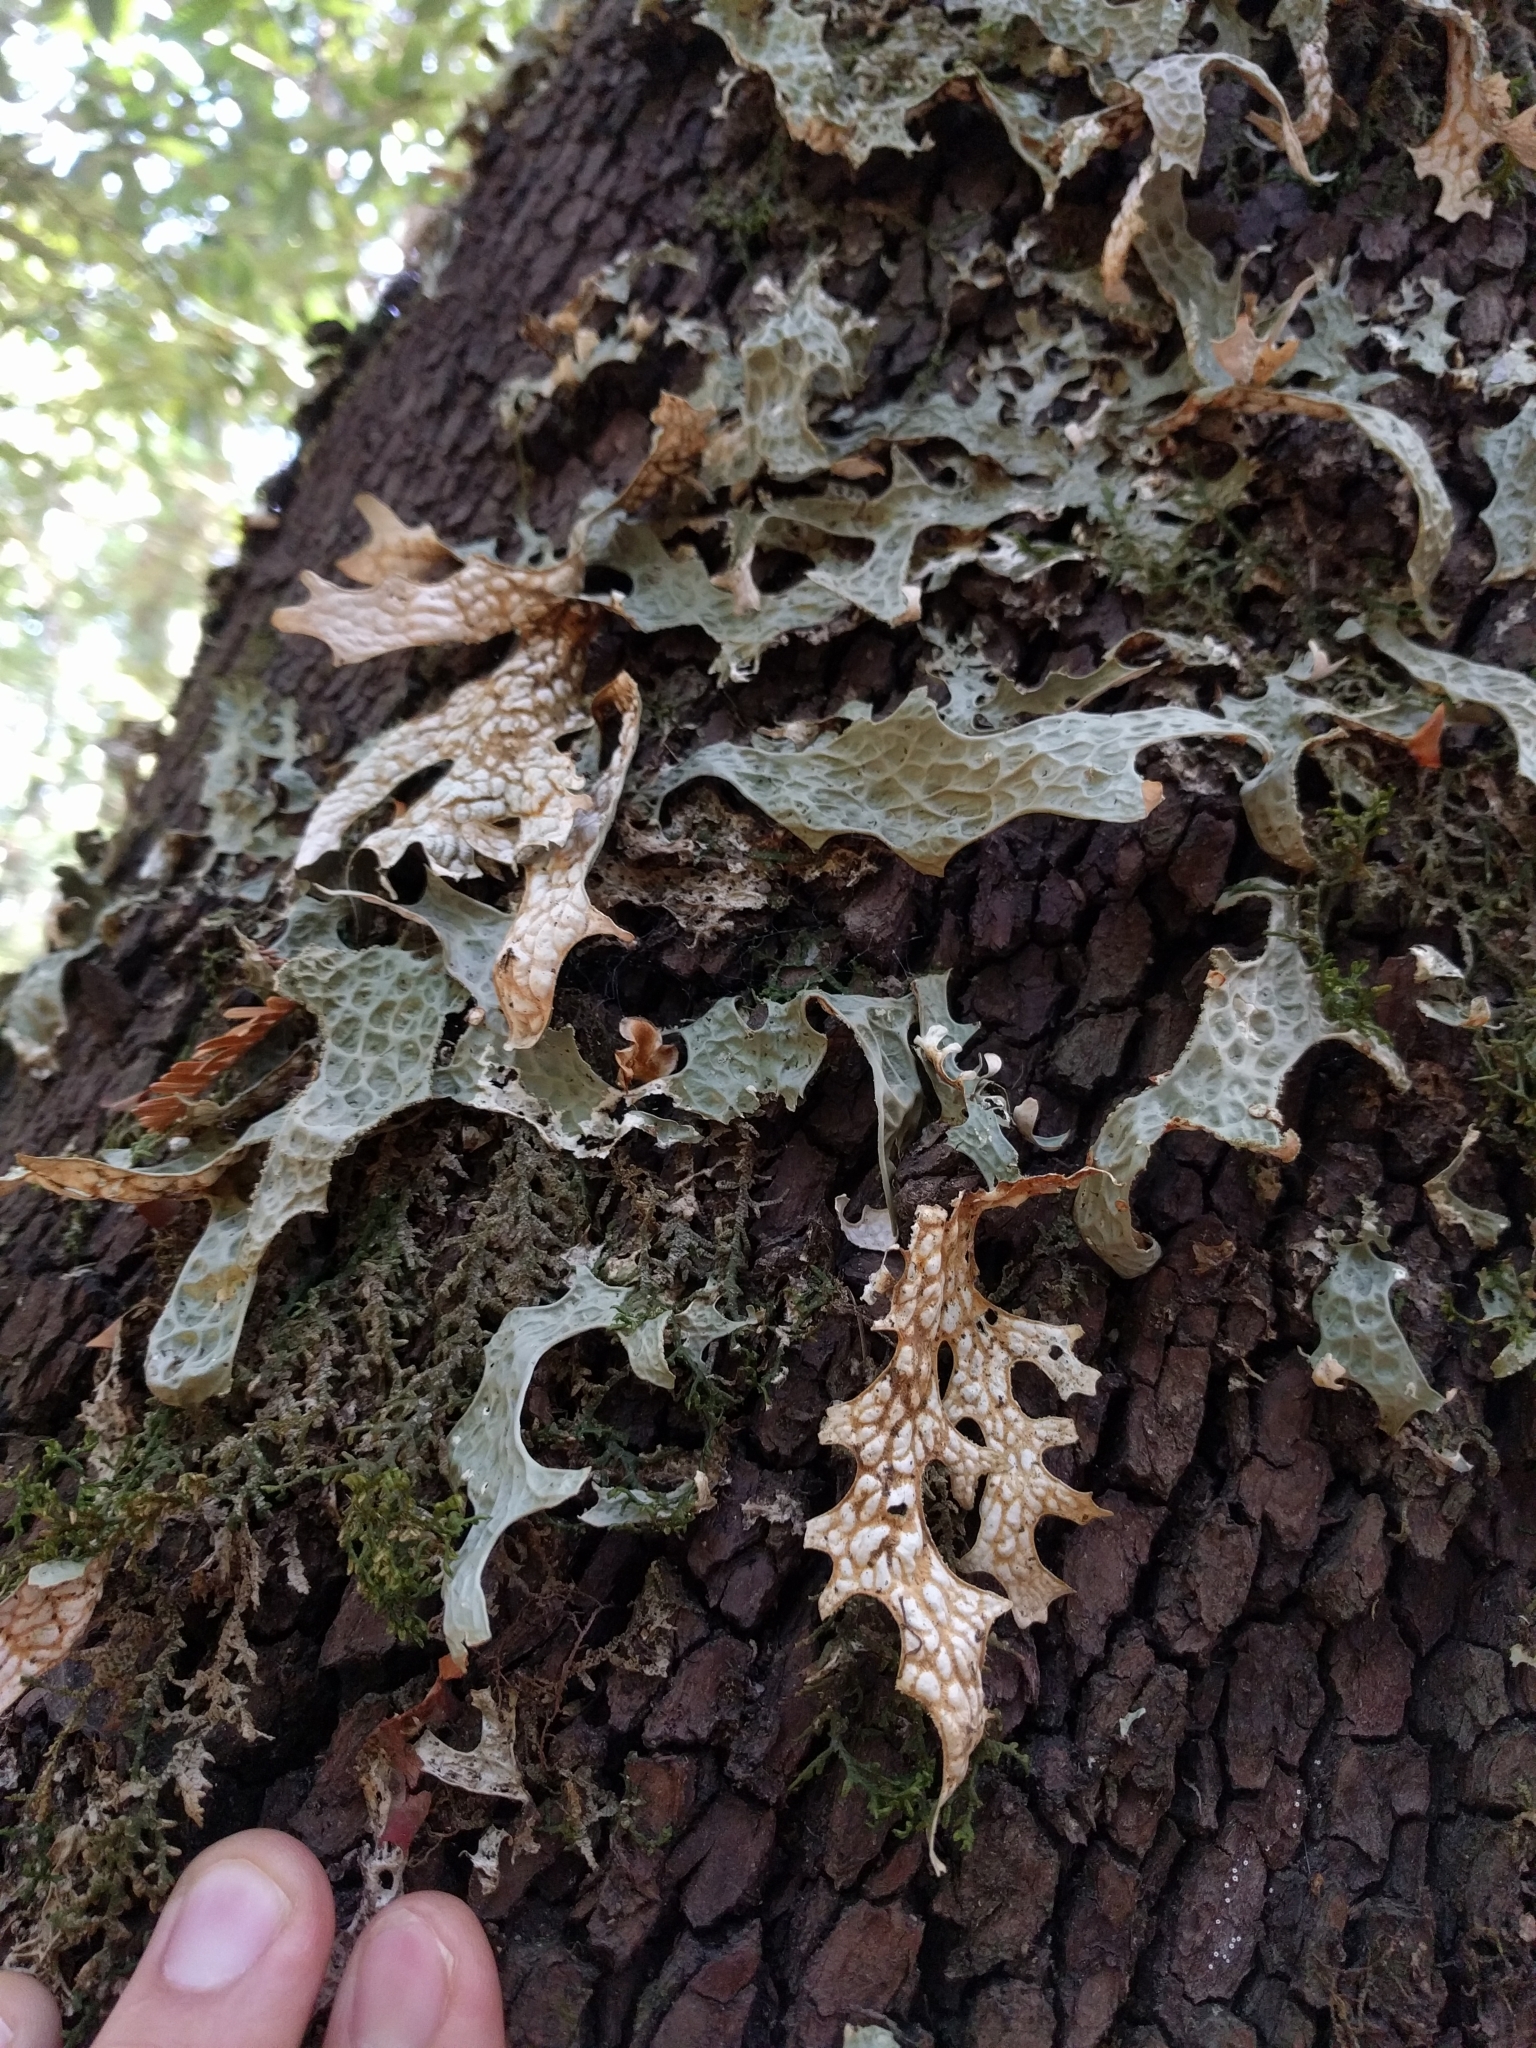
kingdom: Fungi
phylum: Ascomycota
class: Lecanoromycetes
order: Peltigerales
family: Lobariaceae
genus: Lobaria
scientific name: Lobaria pulmonaria
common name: Lungwort
